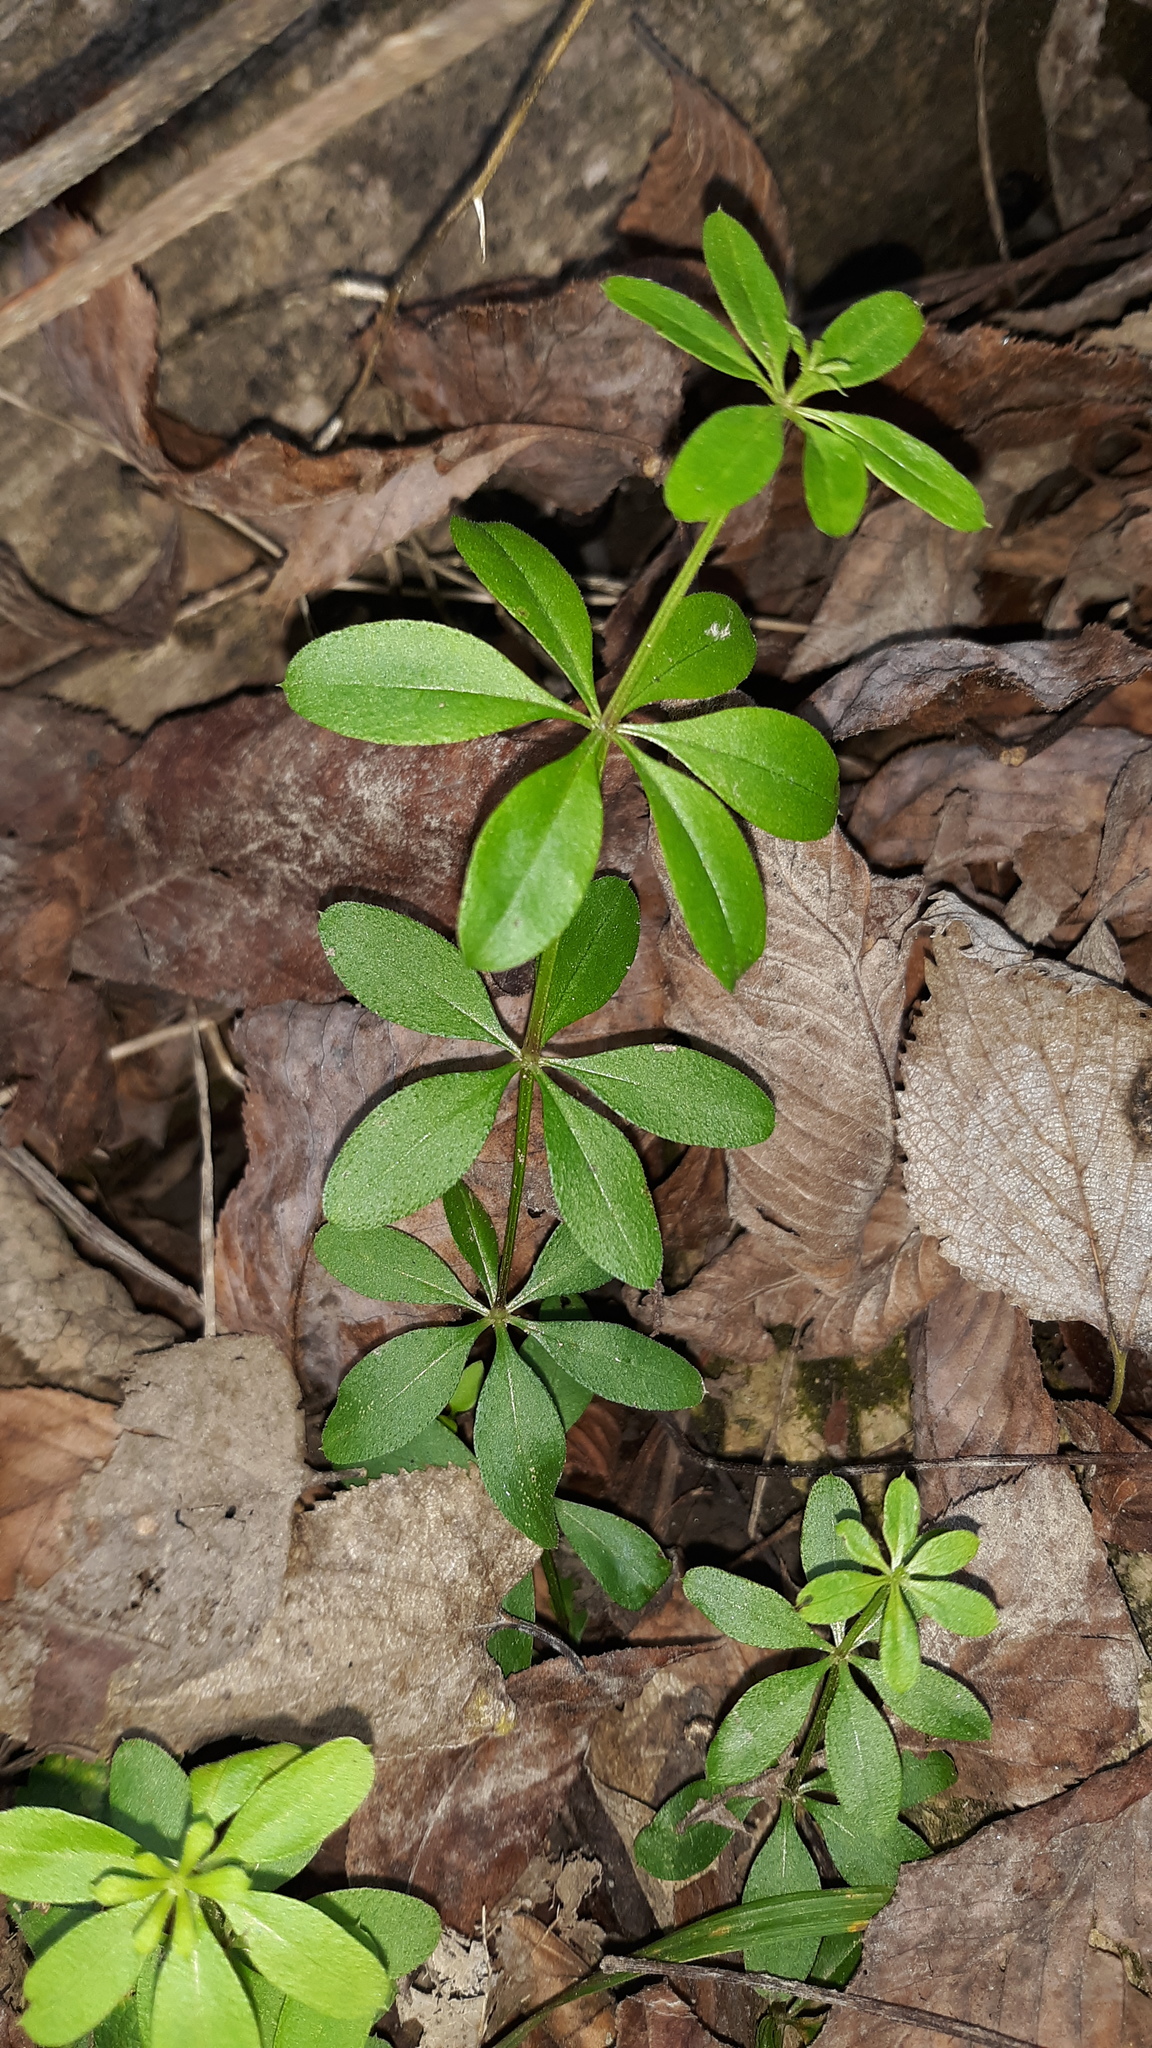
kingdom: Plantae
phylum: Tracheophyta
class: Magnoliopsida
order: Gentianales
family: Rubiaceae
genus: Galium
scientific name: Galium triflorum
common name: Fragrant bedstraw
